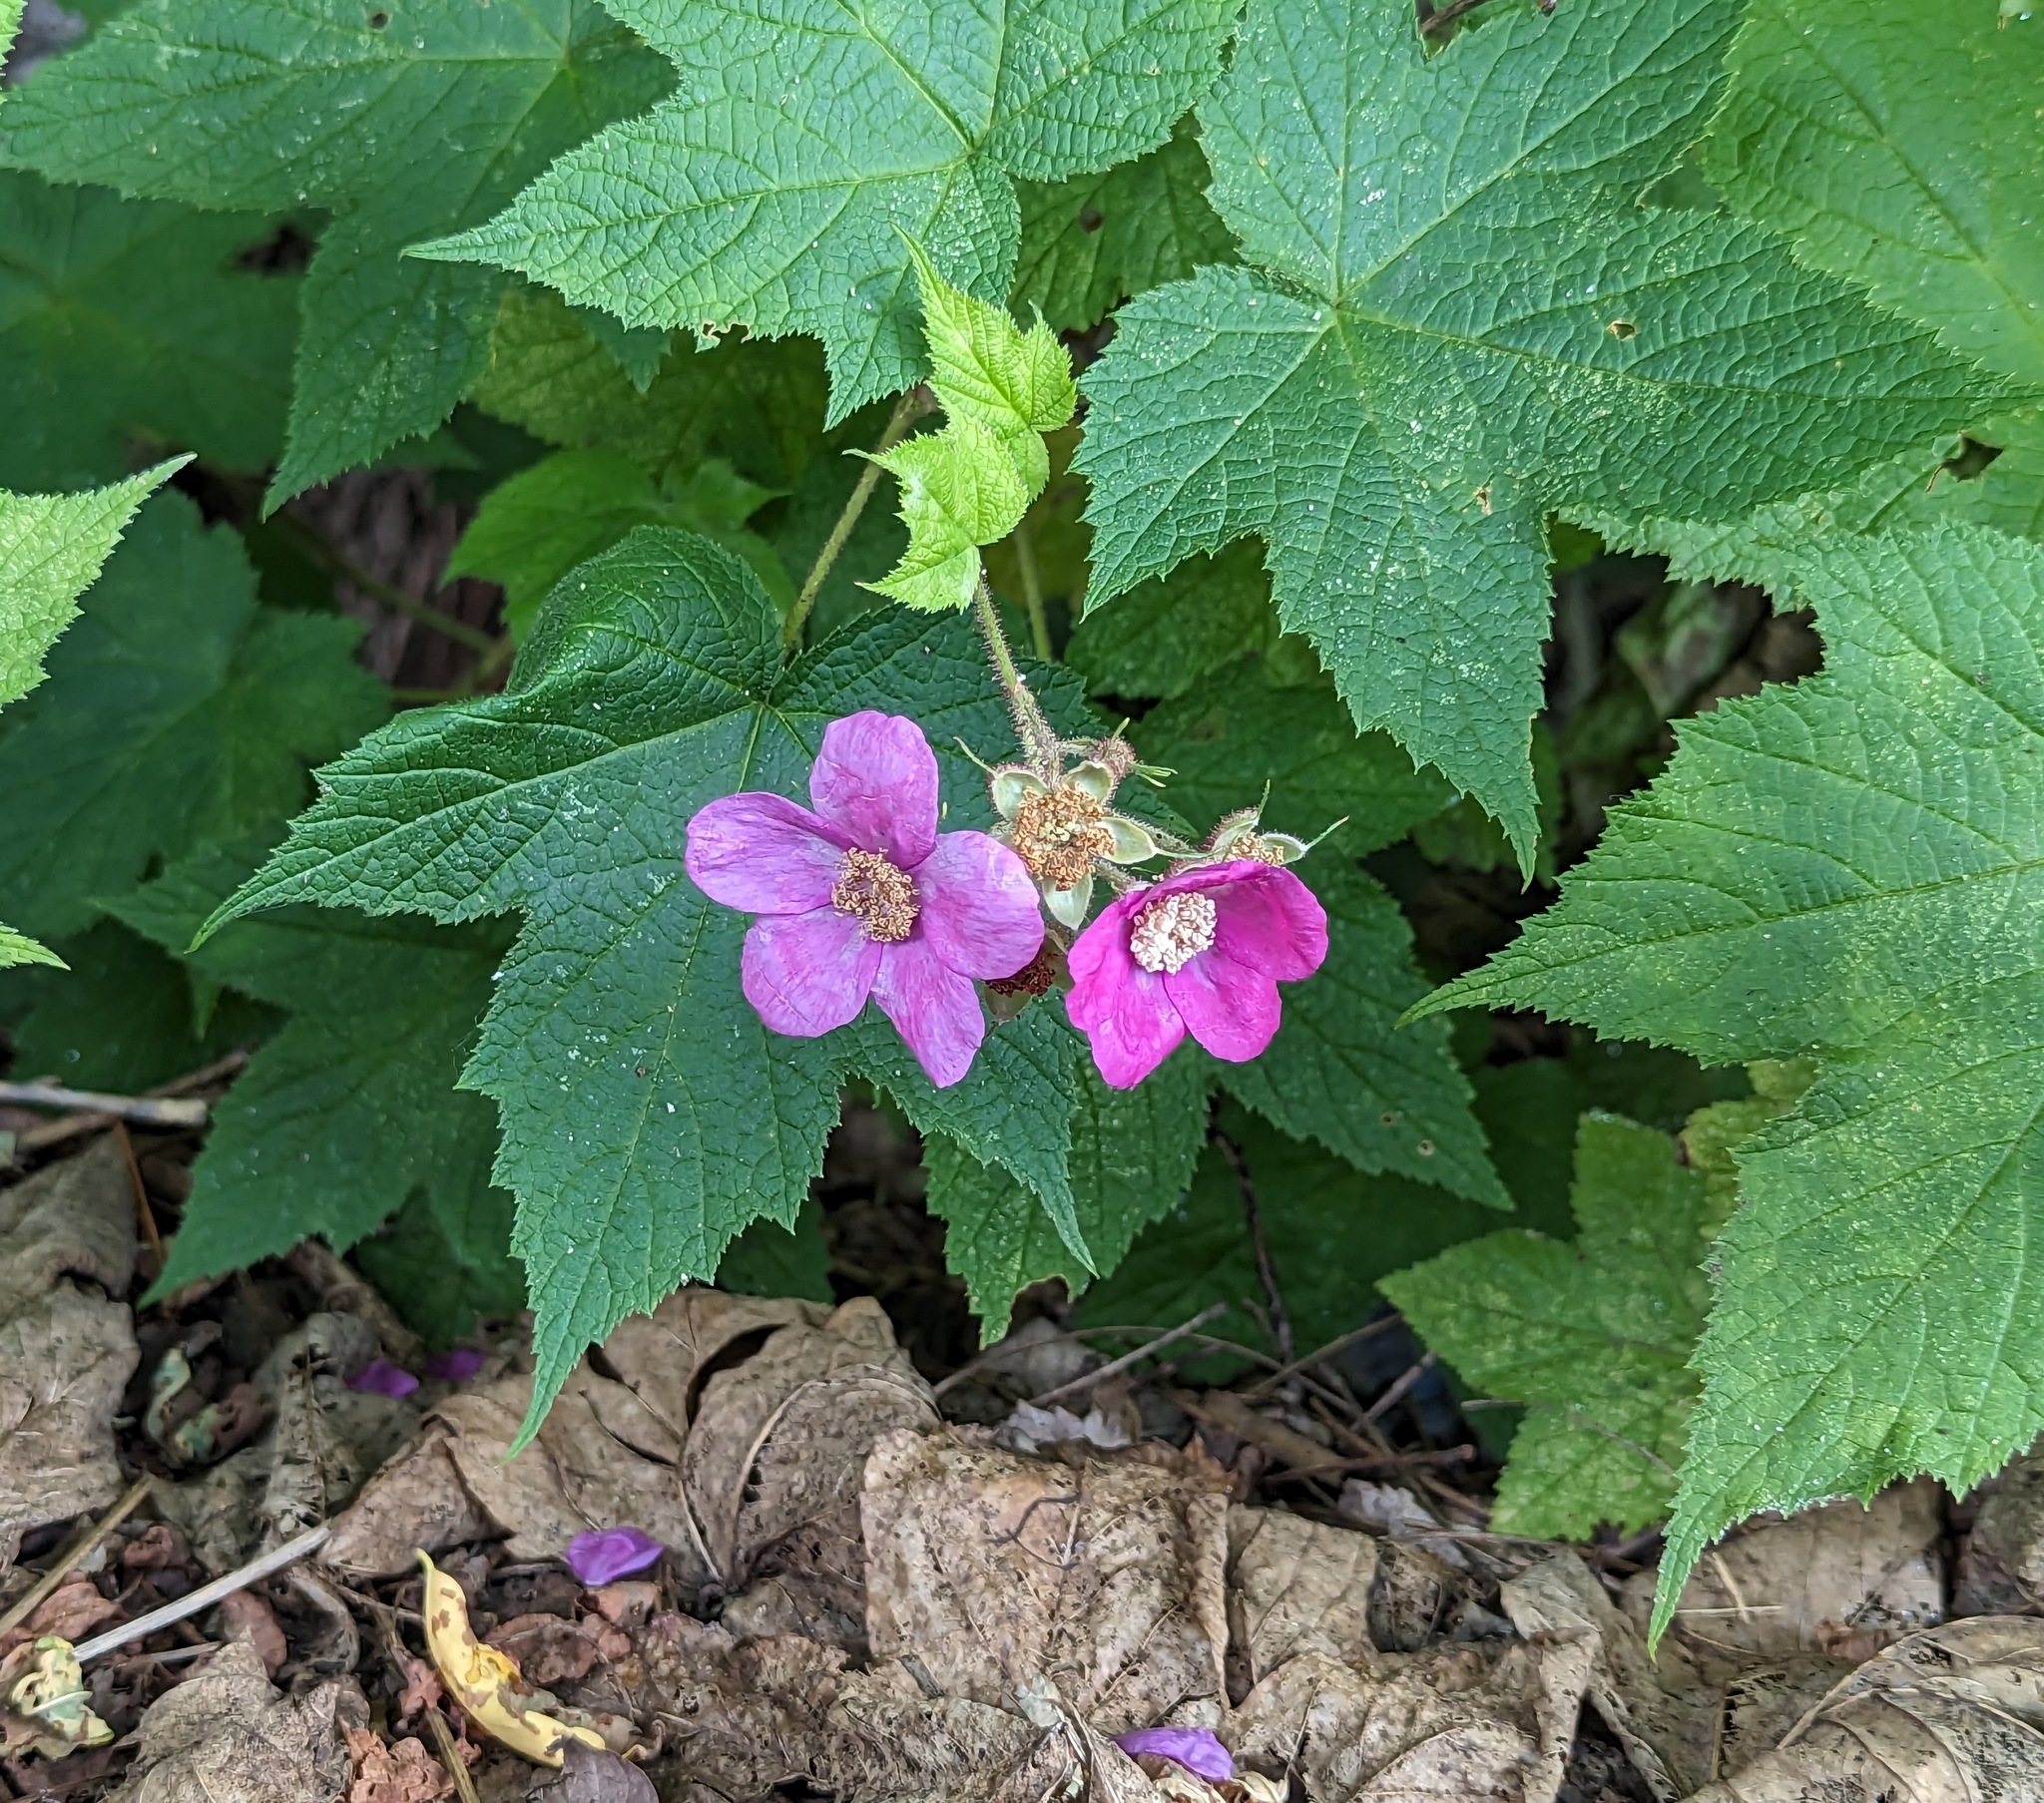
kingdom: Plantae
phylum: Tracheophyta
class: Magnoliopsida
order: Rosales
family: Rosaceae
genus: Rubus
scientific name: Rubus odoratus
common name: Purple-flowered raspberry
